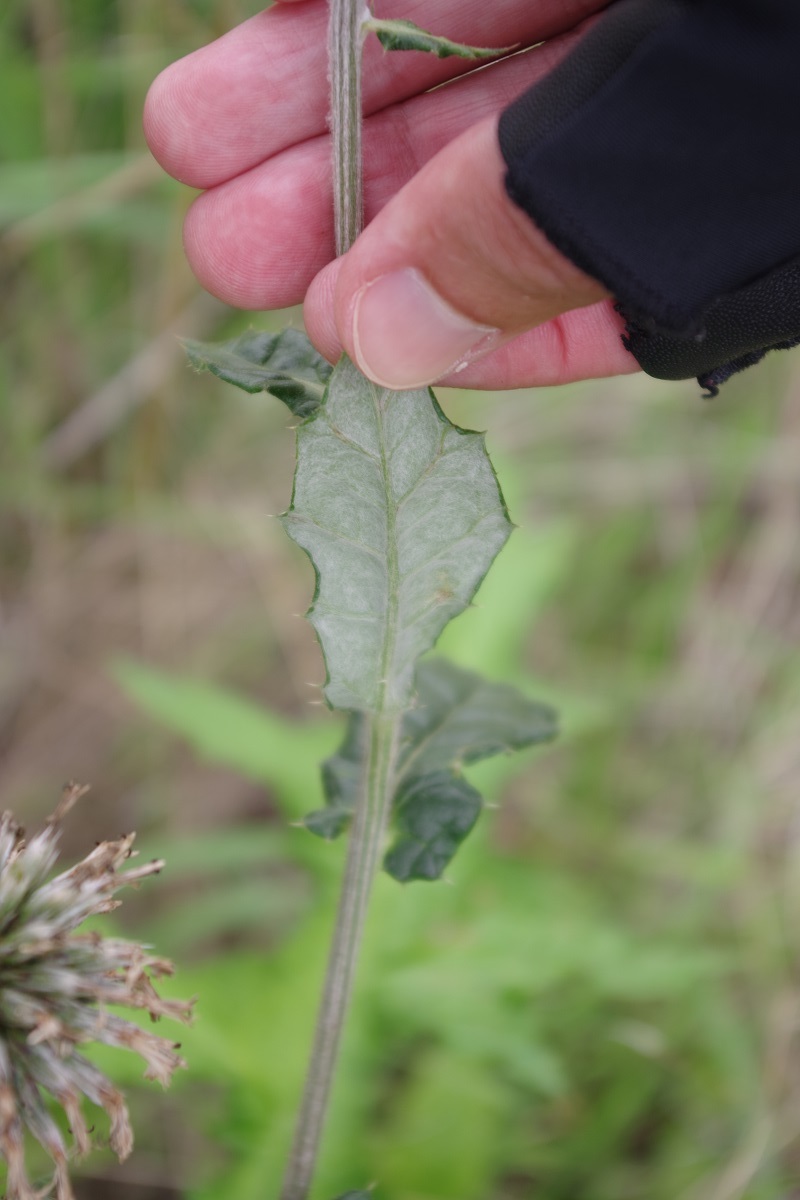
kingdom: Plantae
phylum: Tracheophyta
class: Magnoliopsida
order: Asterales
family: Asteraceae
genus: Echinops
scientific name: Echinops sphaerocephalus
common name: Glandular globe-thistle
